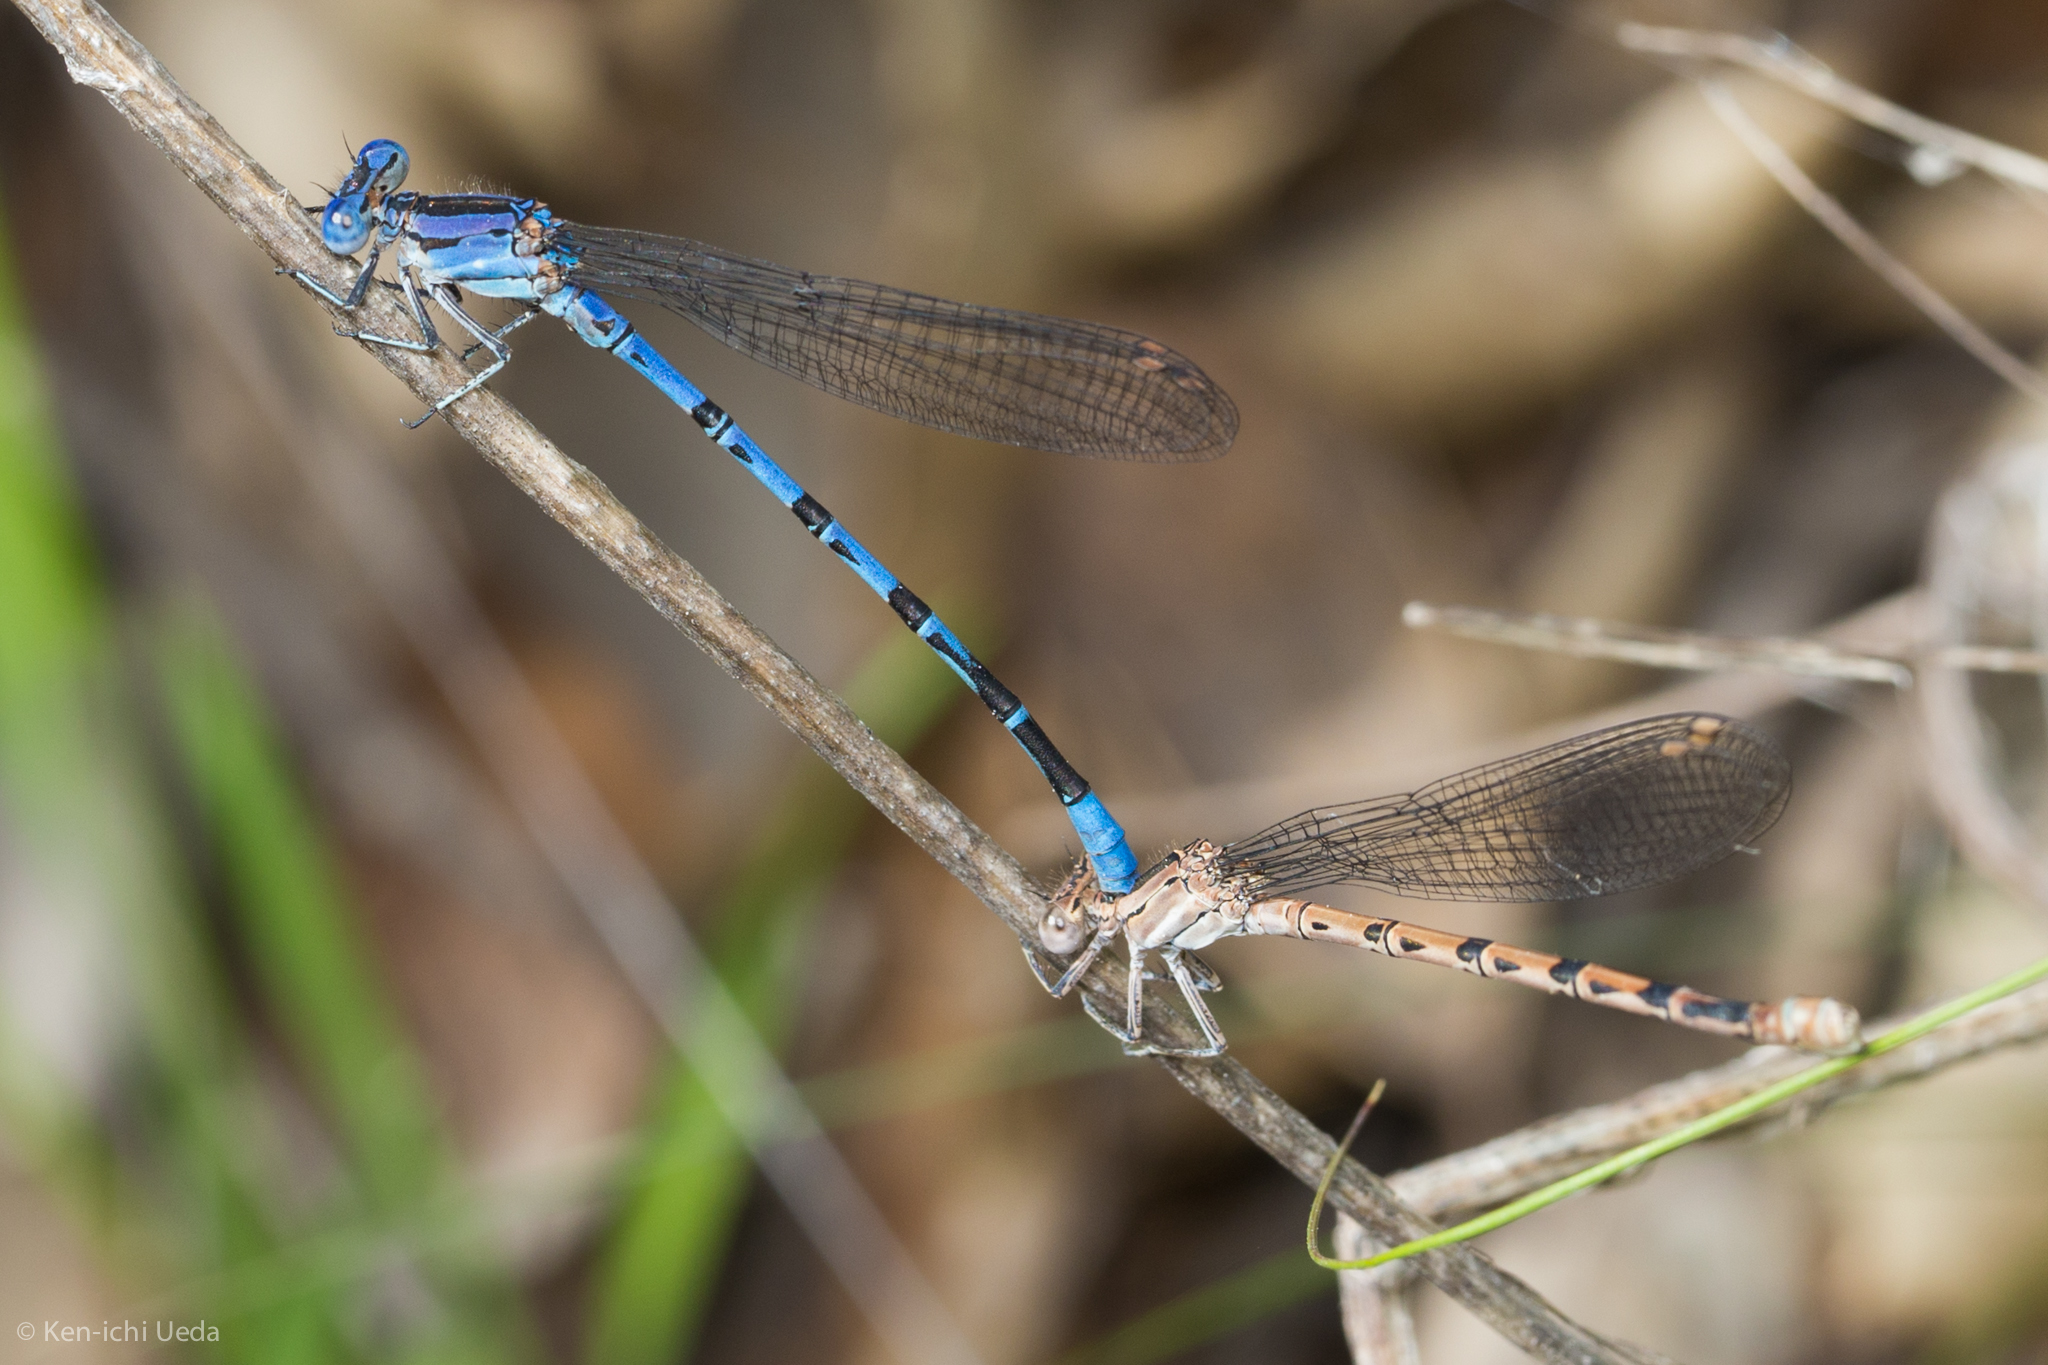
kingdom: Animalia
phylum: Arthropoda
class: Insecta
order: Odonata
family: Coenagrionidae
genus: Argia
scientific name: Argia vivida
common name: Vivid dancer
